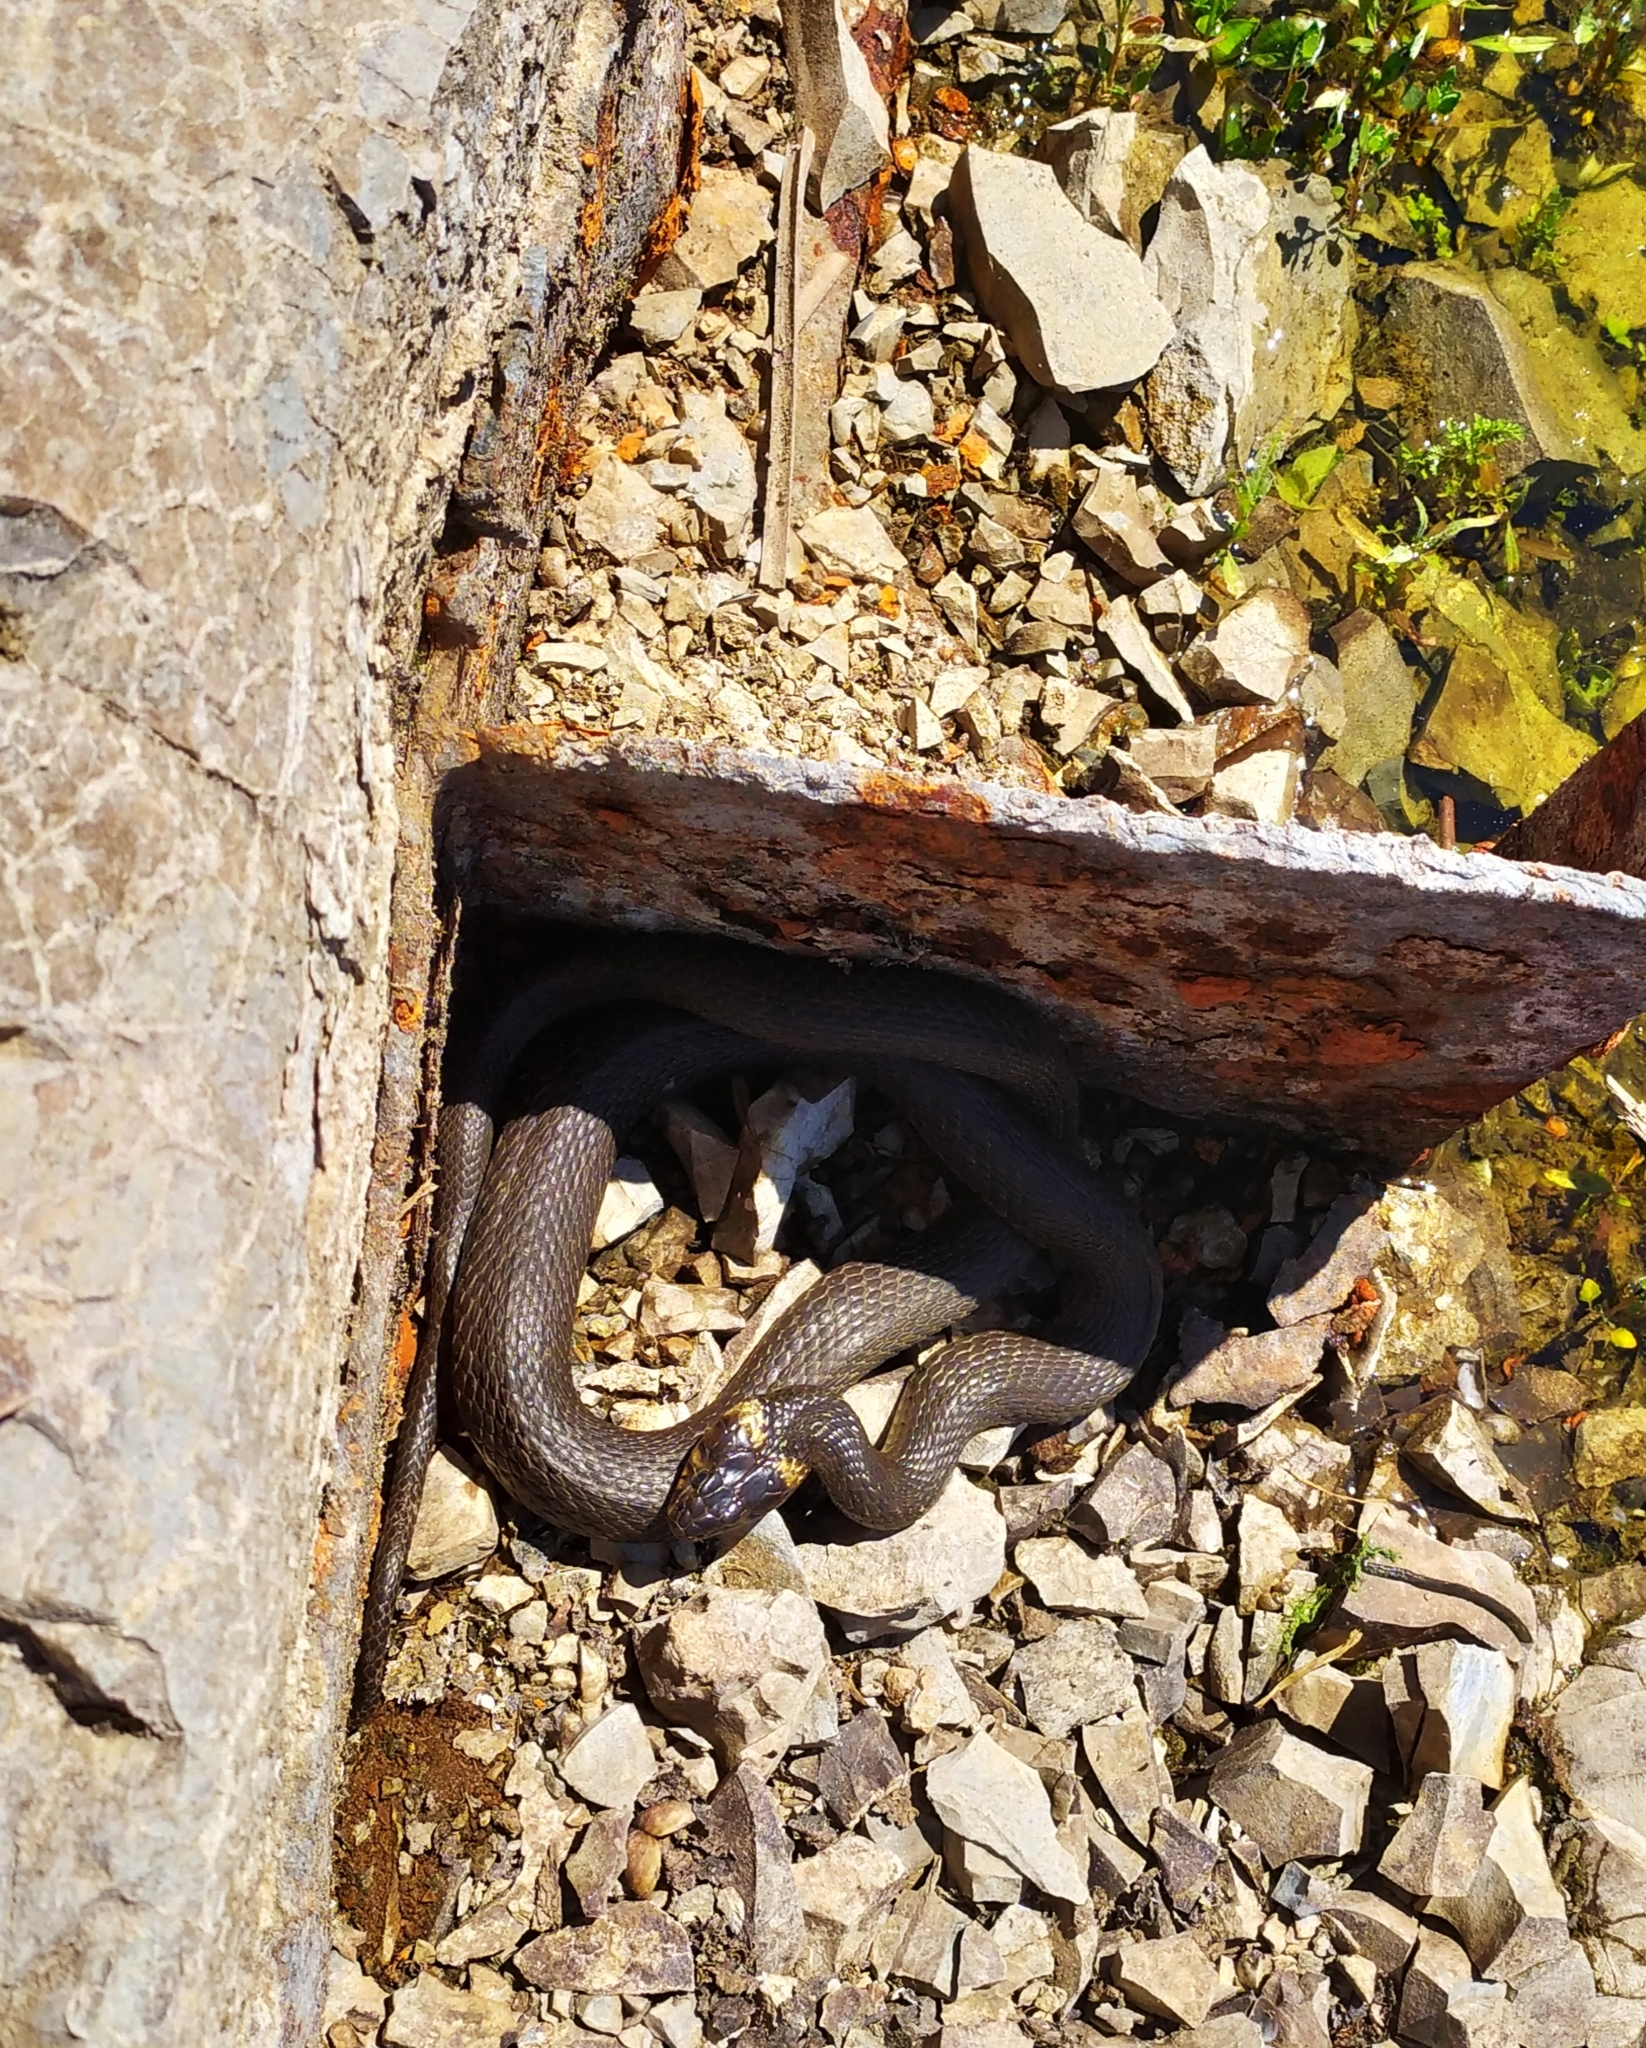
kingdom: Animalia
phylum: Chordata
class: Squamata
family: Colubridae
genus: Natrix
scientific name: Natrix natrix
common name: Grass snake
